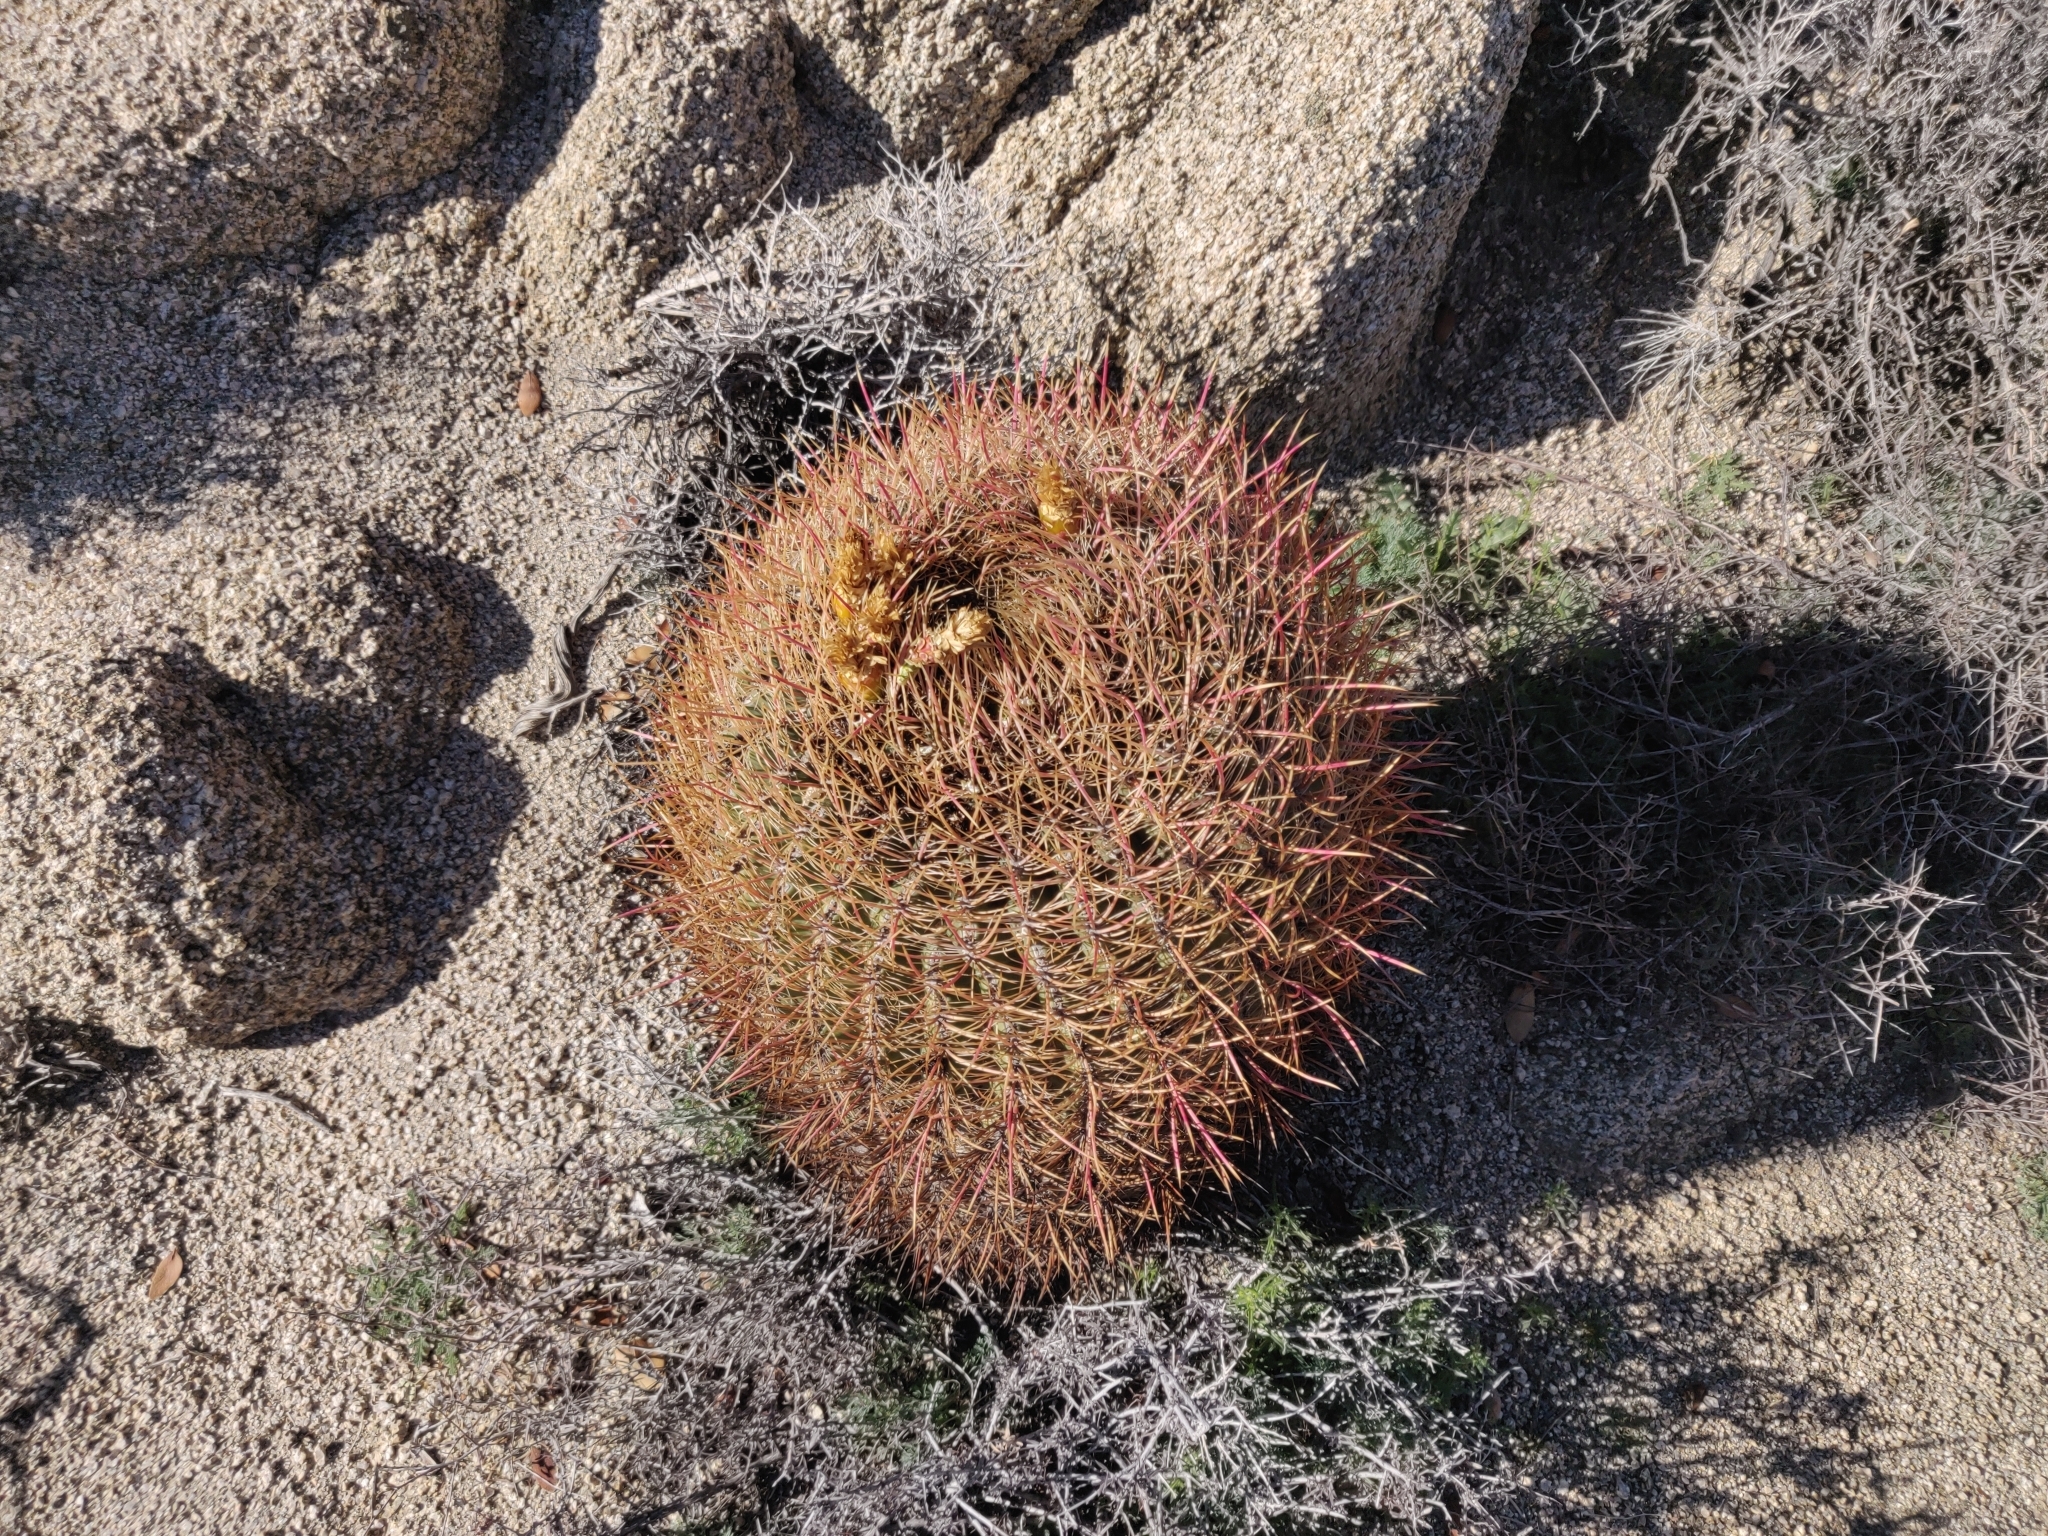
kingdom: Plantae
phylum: Tracheophyta
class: Magnoliopsida
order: Caryophyllales
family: Cactaceae
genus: Ferocactus
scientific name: Ferocactus cylindraceus
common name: California barrel cactus
